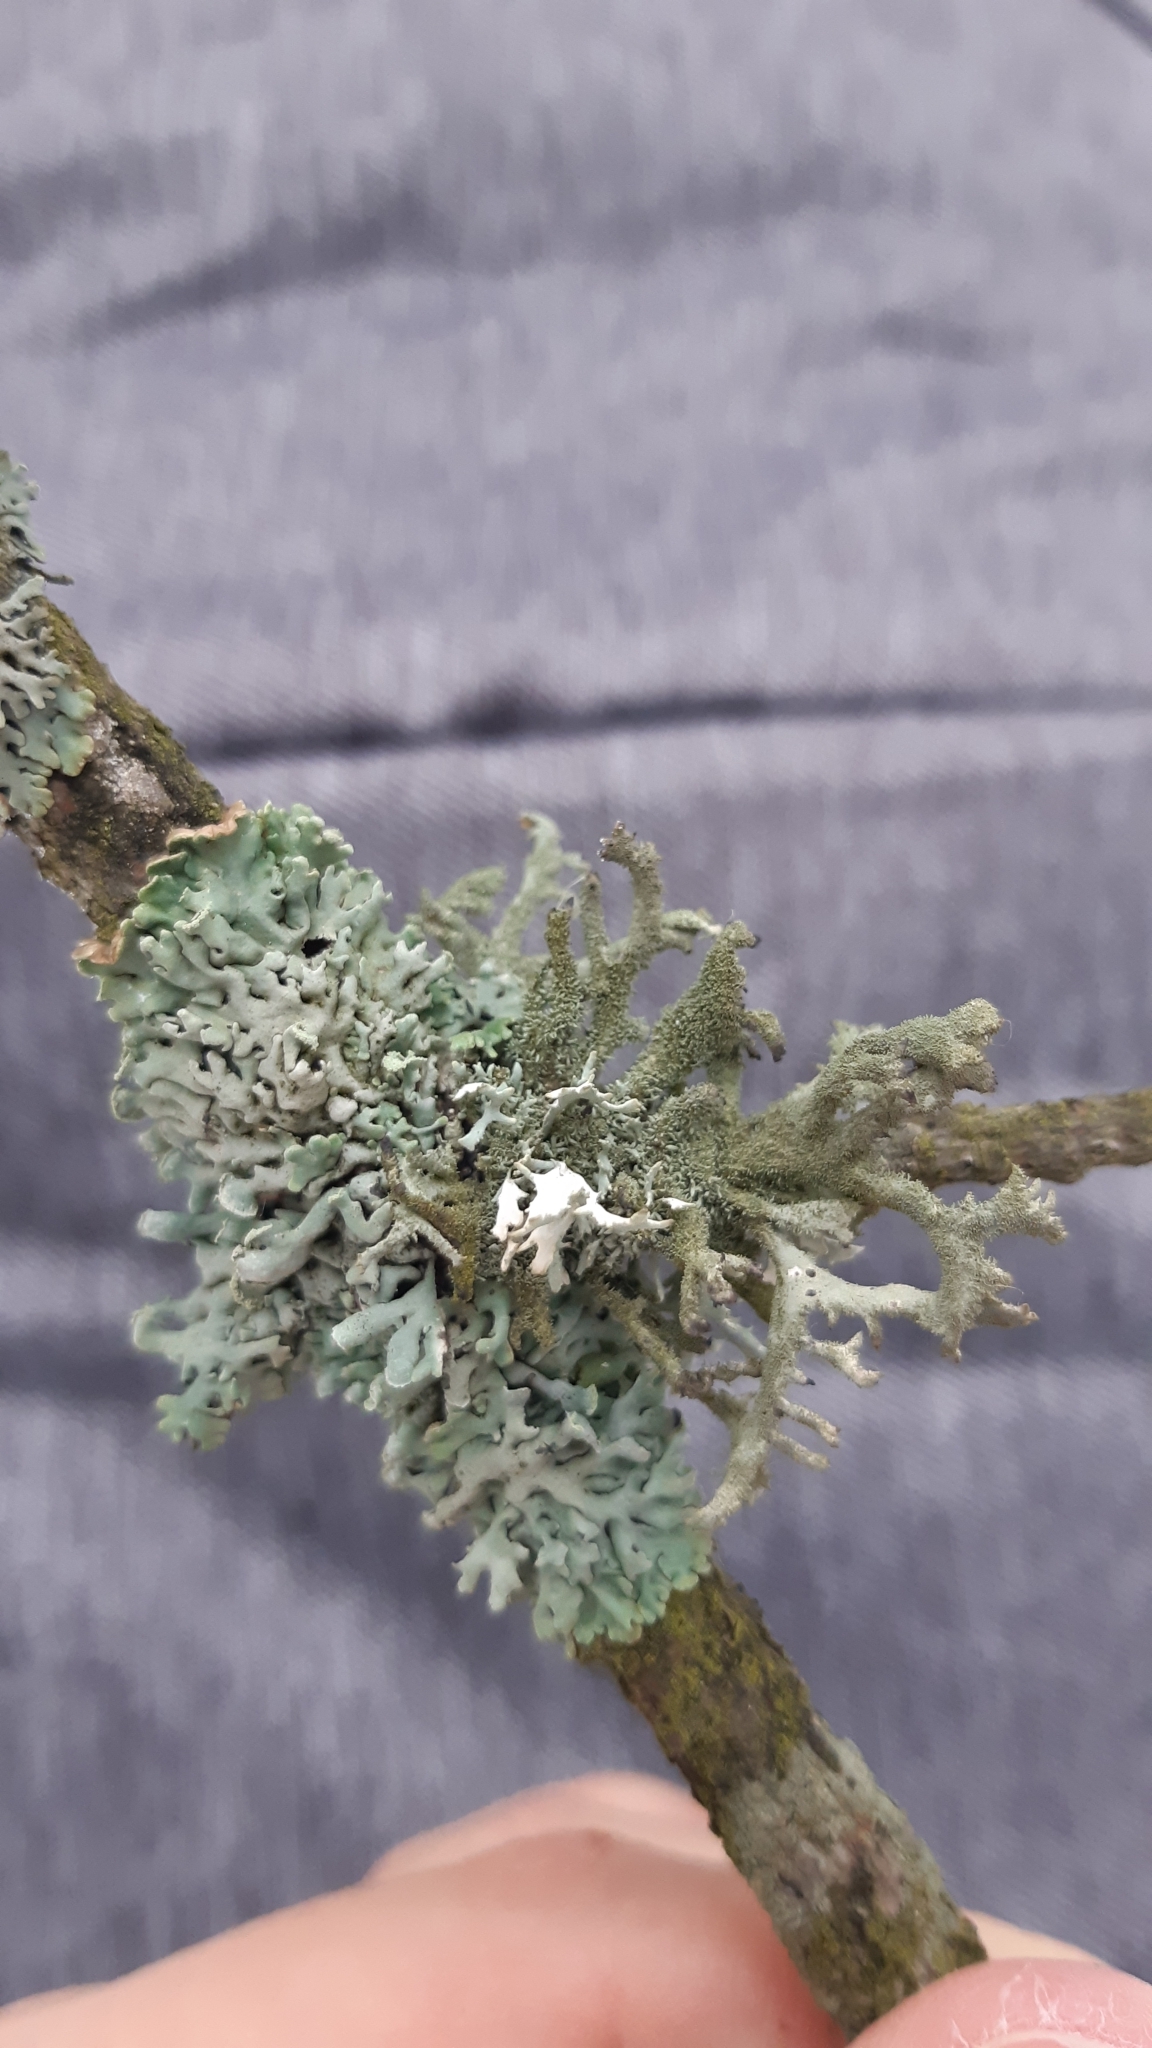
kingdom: Fungi
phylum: Ascomycota
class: Lecanoromycetes
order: Lecanorales
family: Parmeliaceae
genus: Pseudevernia
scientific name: Pseudevernia furfuracea
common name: Tree moss
